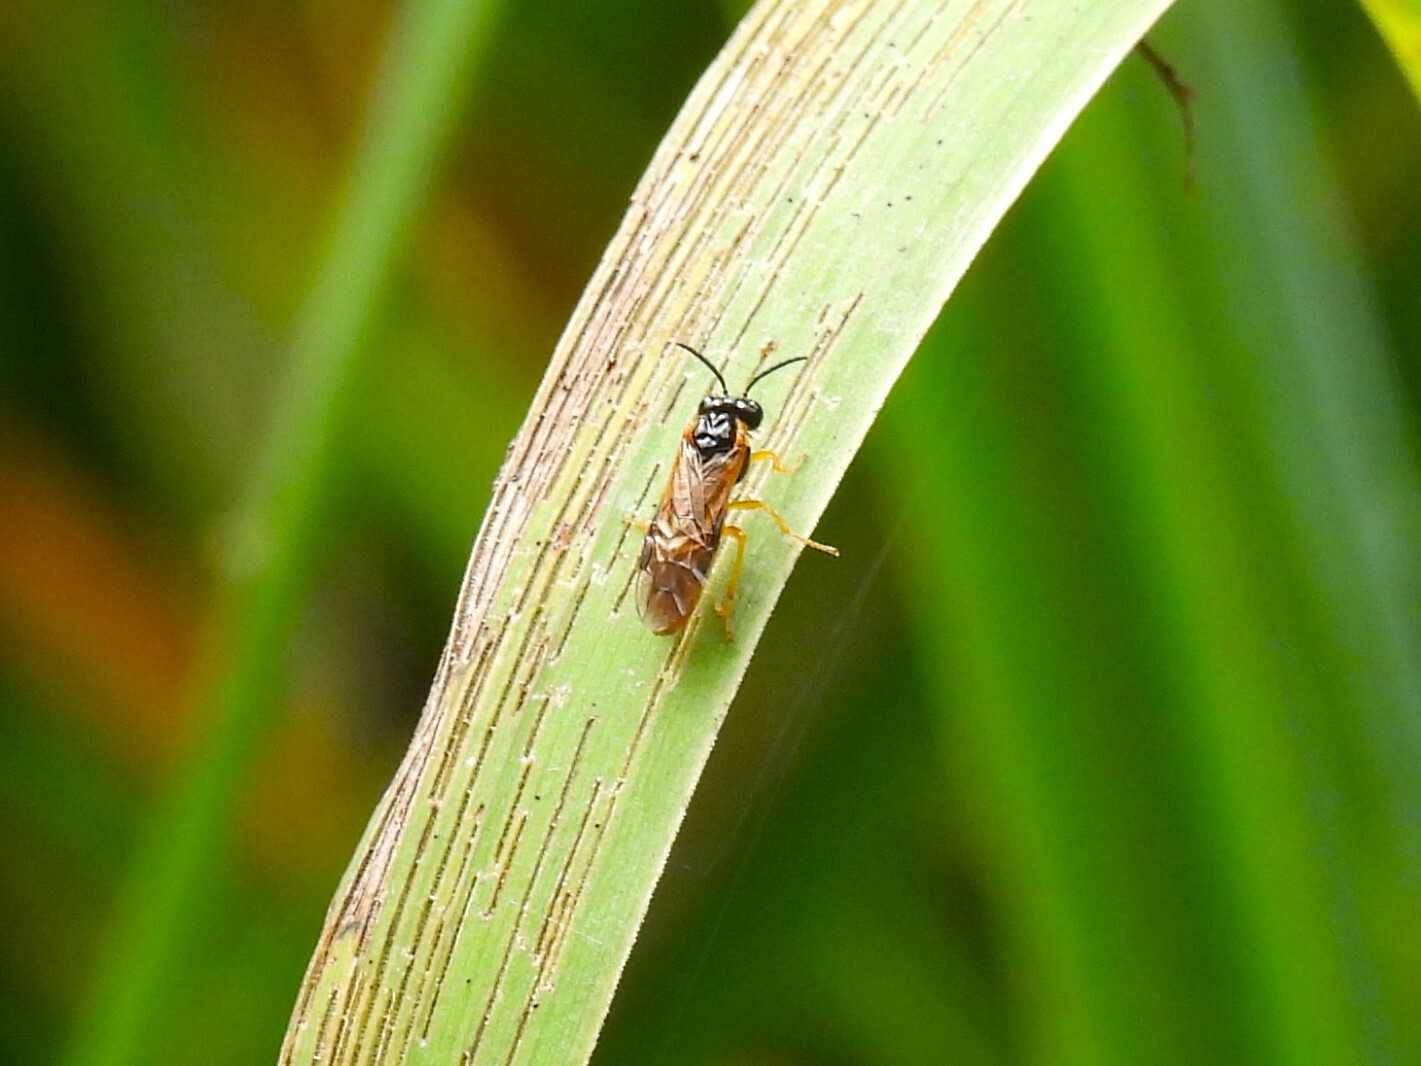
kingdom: Animalia
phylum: Arthropoda
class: Insecta
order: Hymenoptera
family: Tenthredinidae
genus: Selandria
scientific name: Selandria serva
